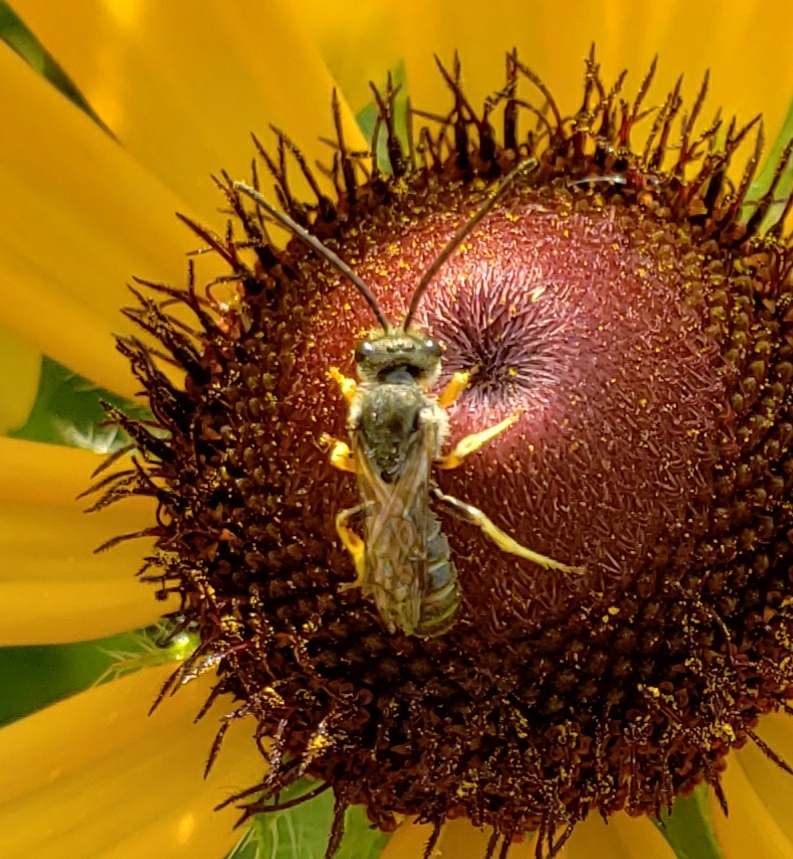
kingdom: Animalia
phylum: Arthropoda
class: Insecta
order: Hymenoptera
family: Halictidae
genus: Halictus
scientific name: Halictus confusus
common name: Southern bronze furrow bee
